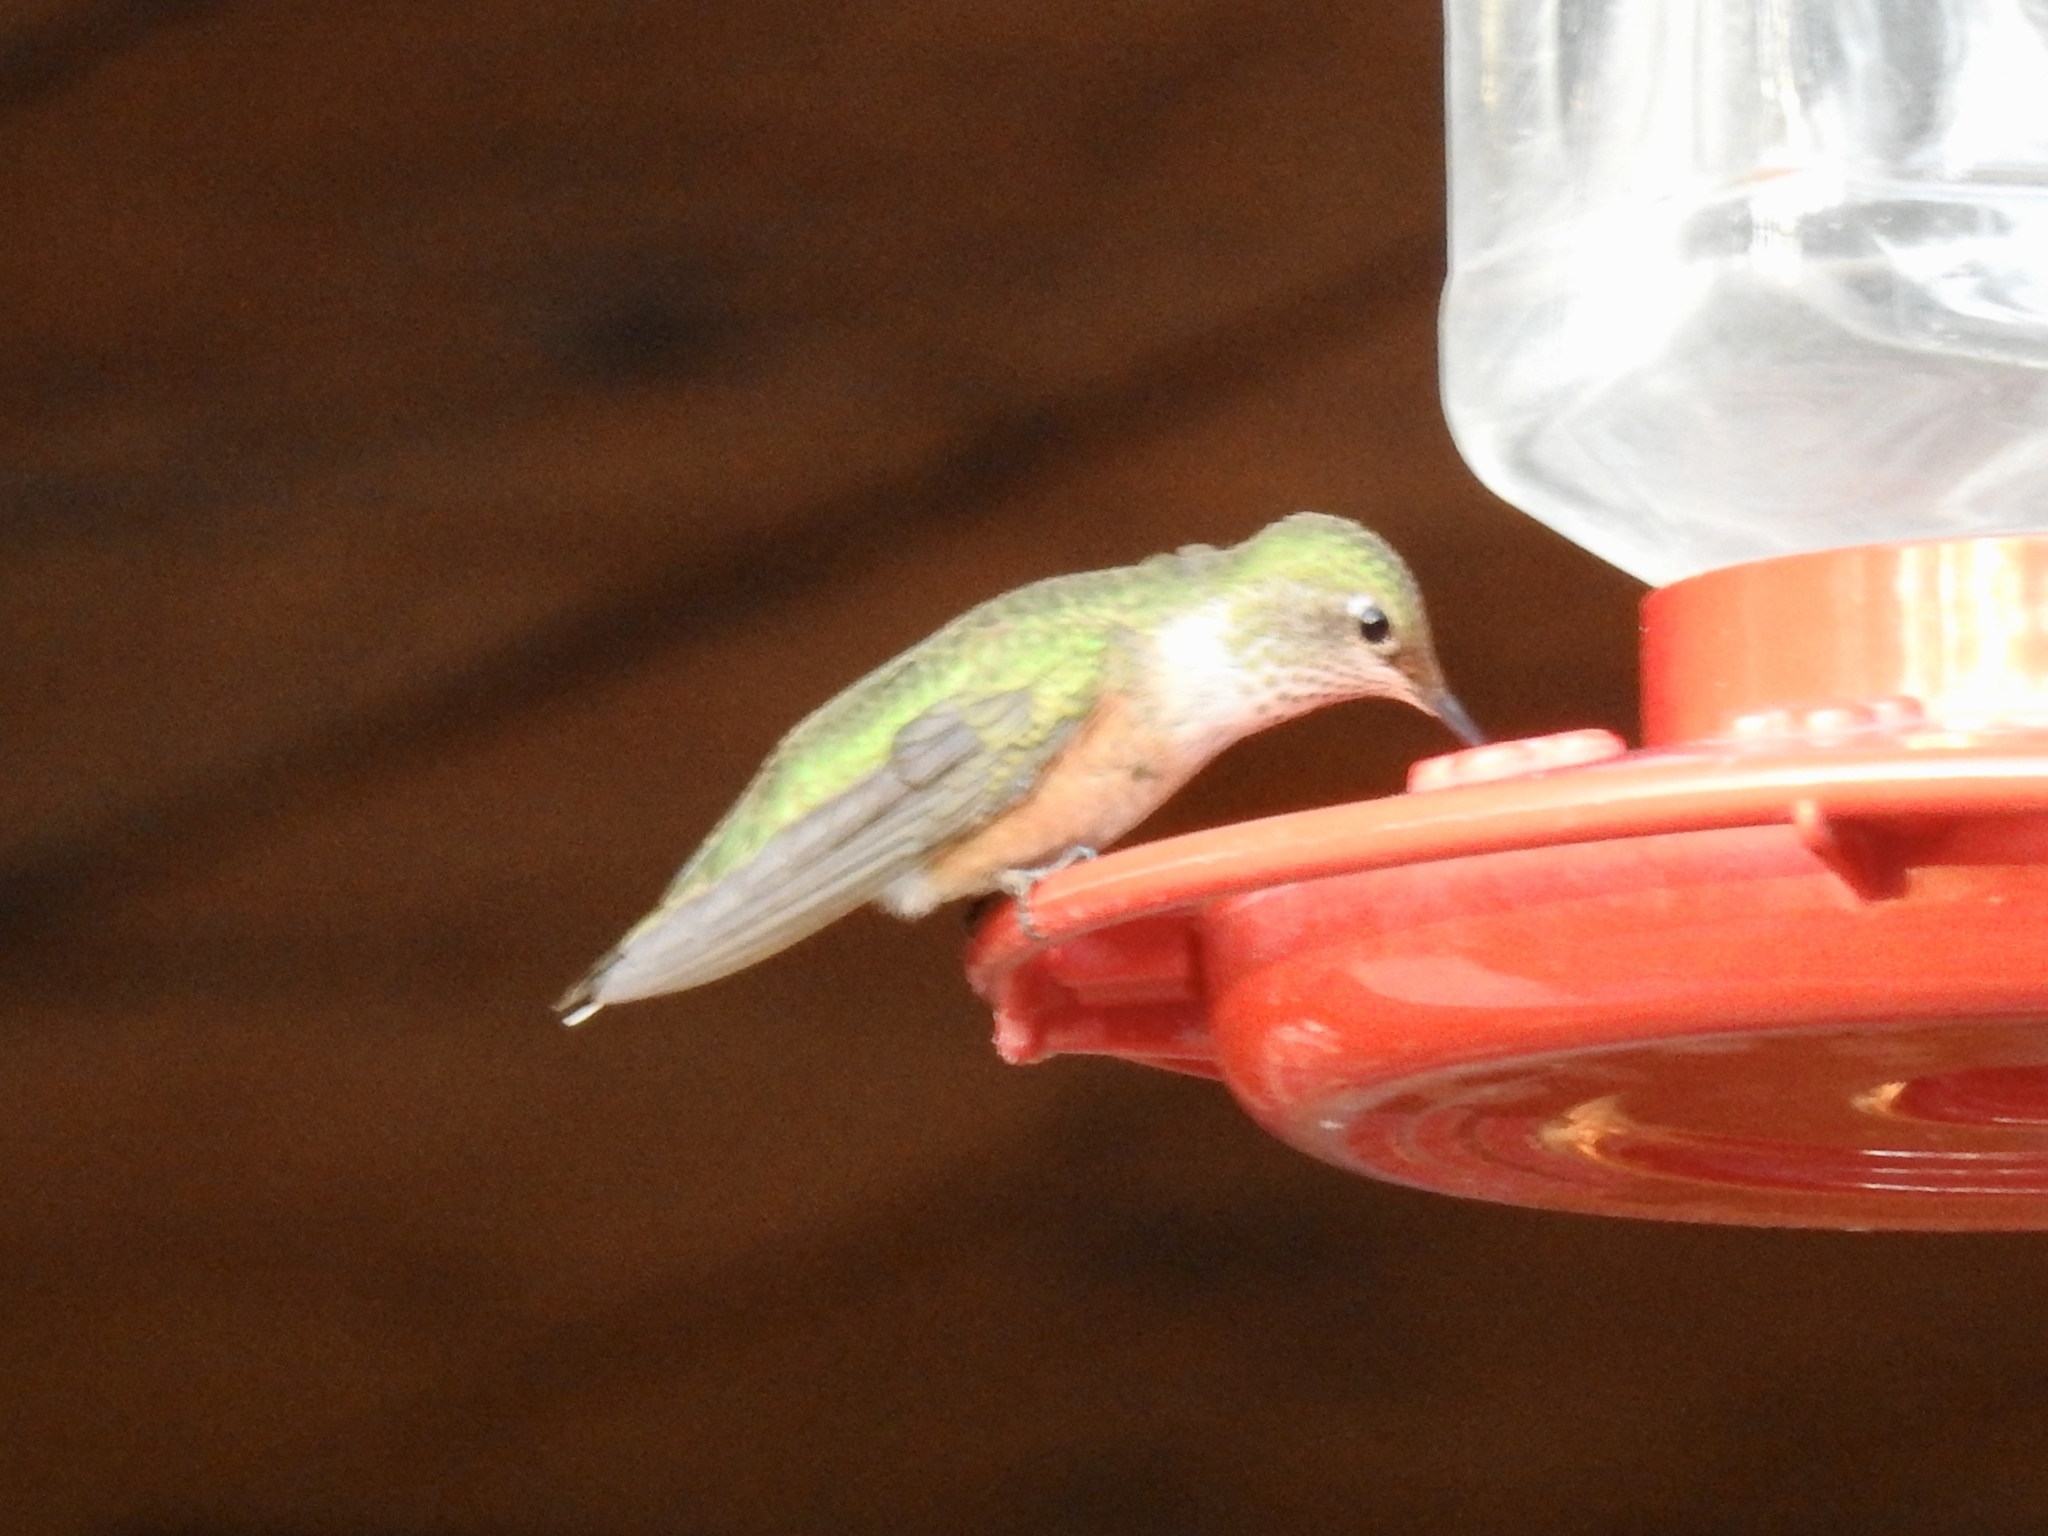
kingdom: Animalia
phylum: Chordata
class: Aves
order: Apodiformes
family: Trochilidae
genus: Selasphorus
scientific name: Selasphorus platycercus
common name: Broad-tailed hummingbird
